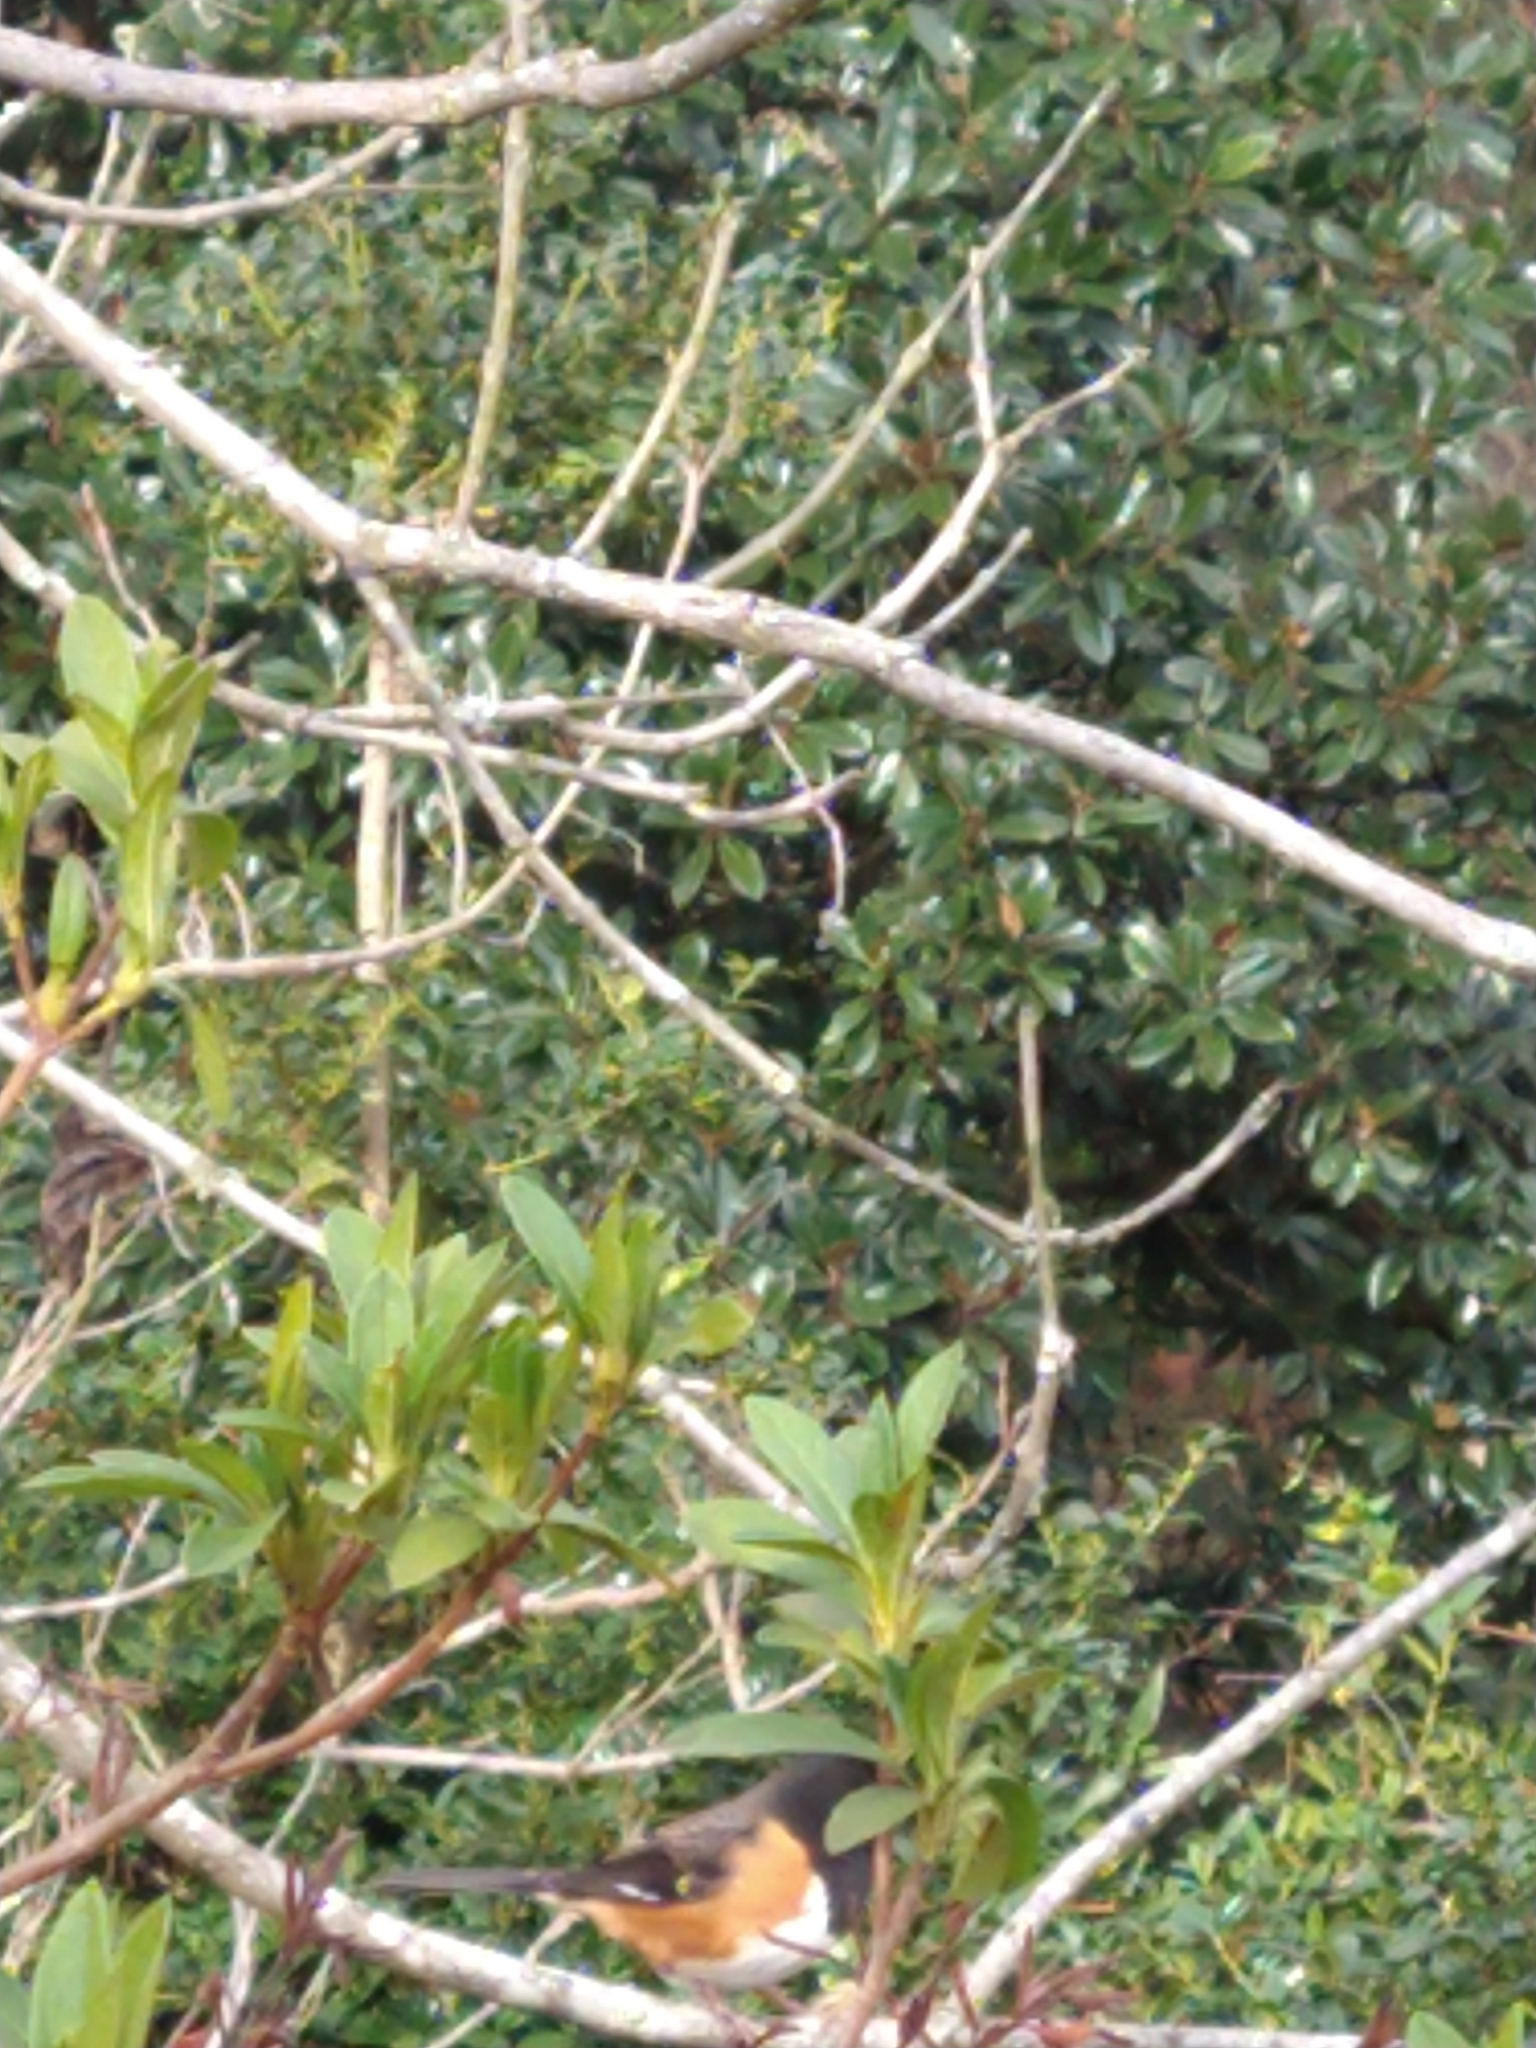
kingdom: Animalia
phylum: Chordata
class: Aves
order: Passeriformes
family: Passerellidae
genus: Pipilo
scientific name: Pipilo erythrophthalmus
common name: Eastern towhee
